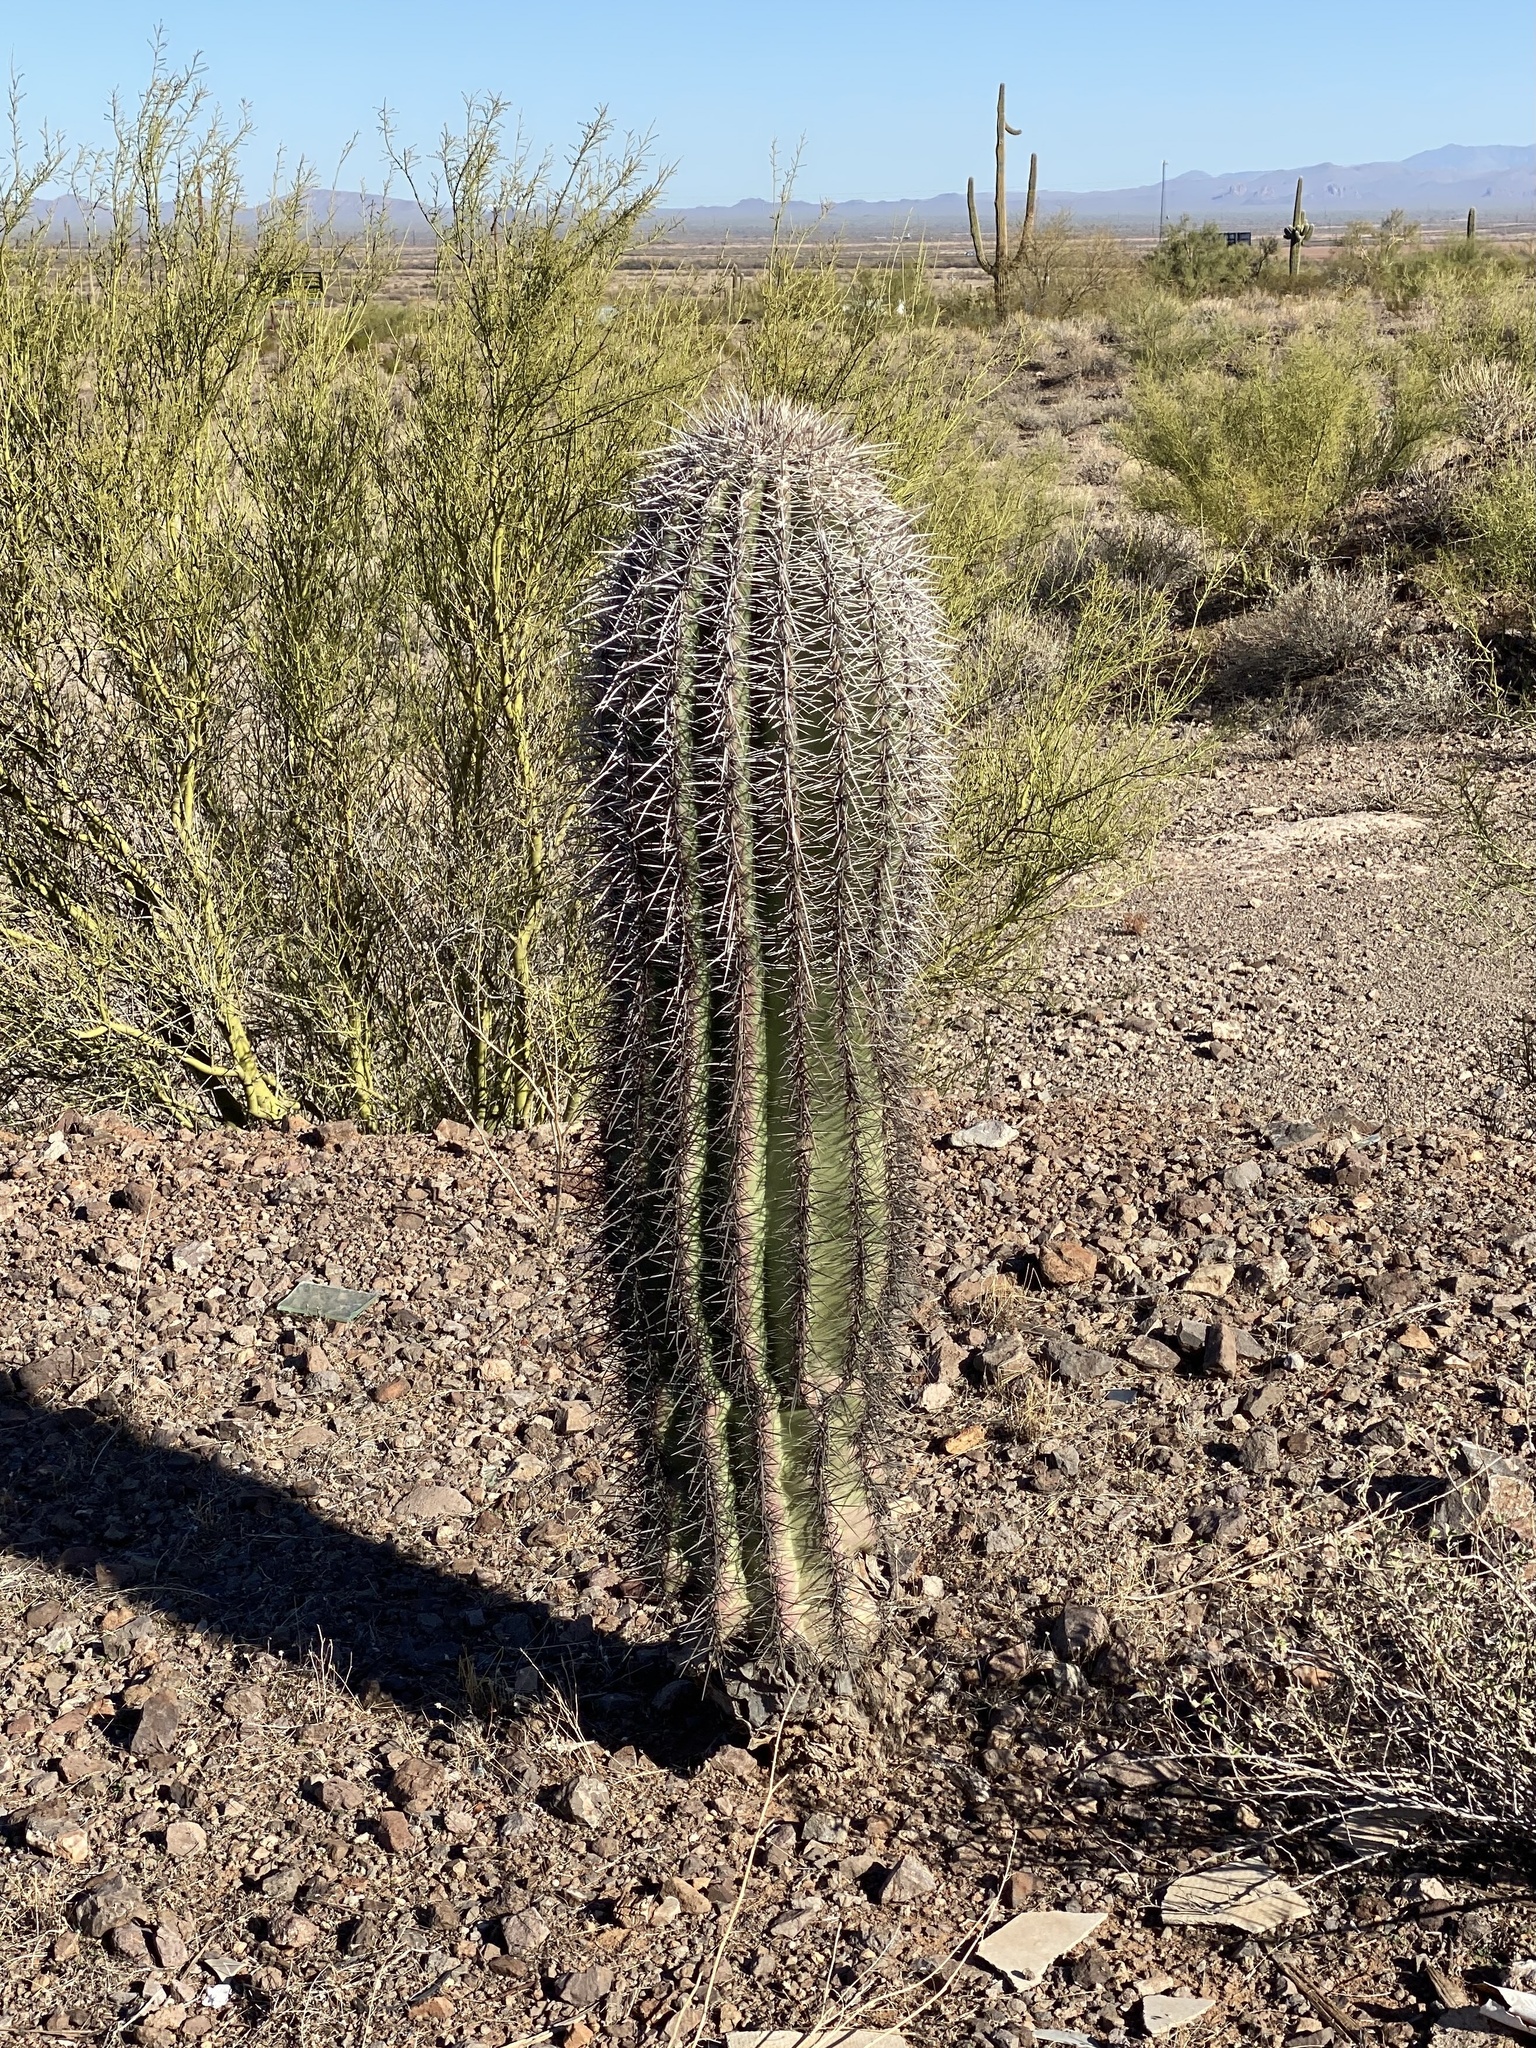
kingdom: Plantae
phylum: Tracheophyta
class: Magnoliopsida
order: Caryophyllales
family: Cactaceae
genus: Carnegiea
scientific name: Carnegiea gigantea
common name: Saguaro
